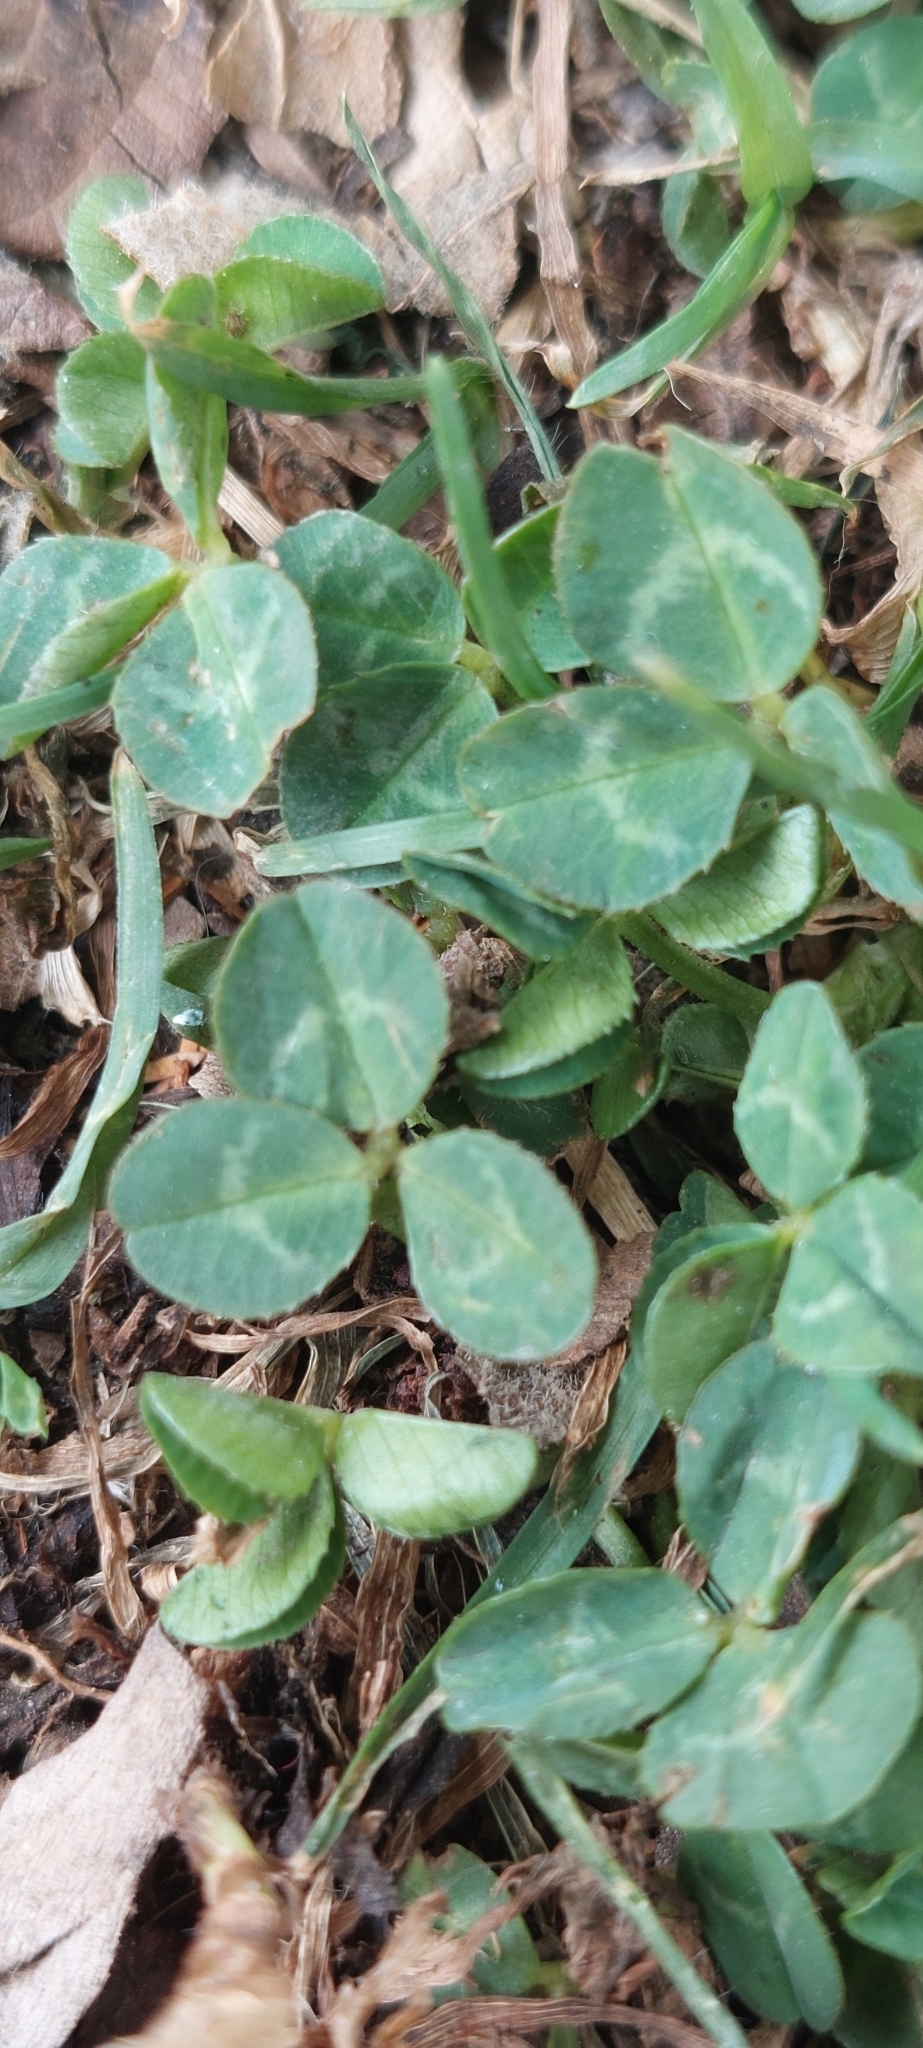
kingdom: Plantae
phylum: Tracheophyta
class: Magnoliopsida
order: Fabales
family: Fabaceae
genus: Trifolium
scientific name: Trifolium repens
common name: White clover
